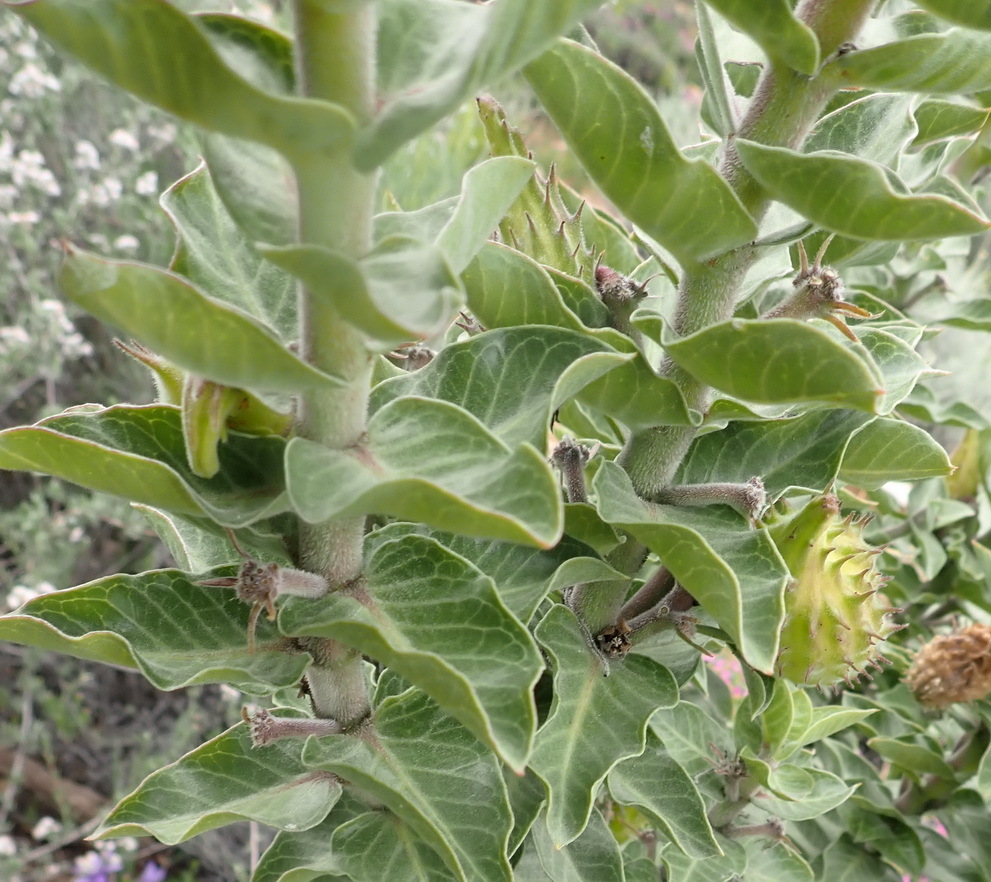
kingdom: Plantae
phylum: Tracheophyta
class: Magnoliopsida
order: Gentianales
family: Apocynaceae
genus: Gomphocarpus
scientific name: Gomphocarpus cancellatus
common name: Wild cotton
